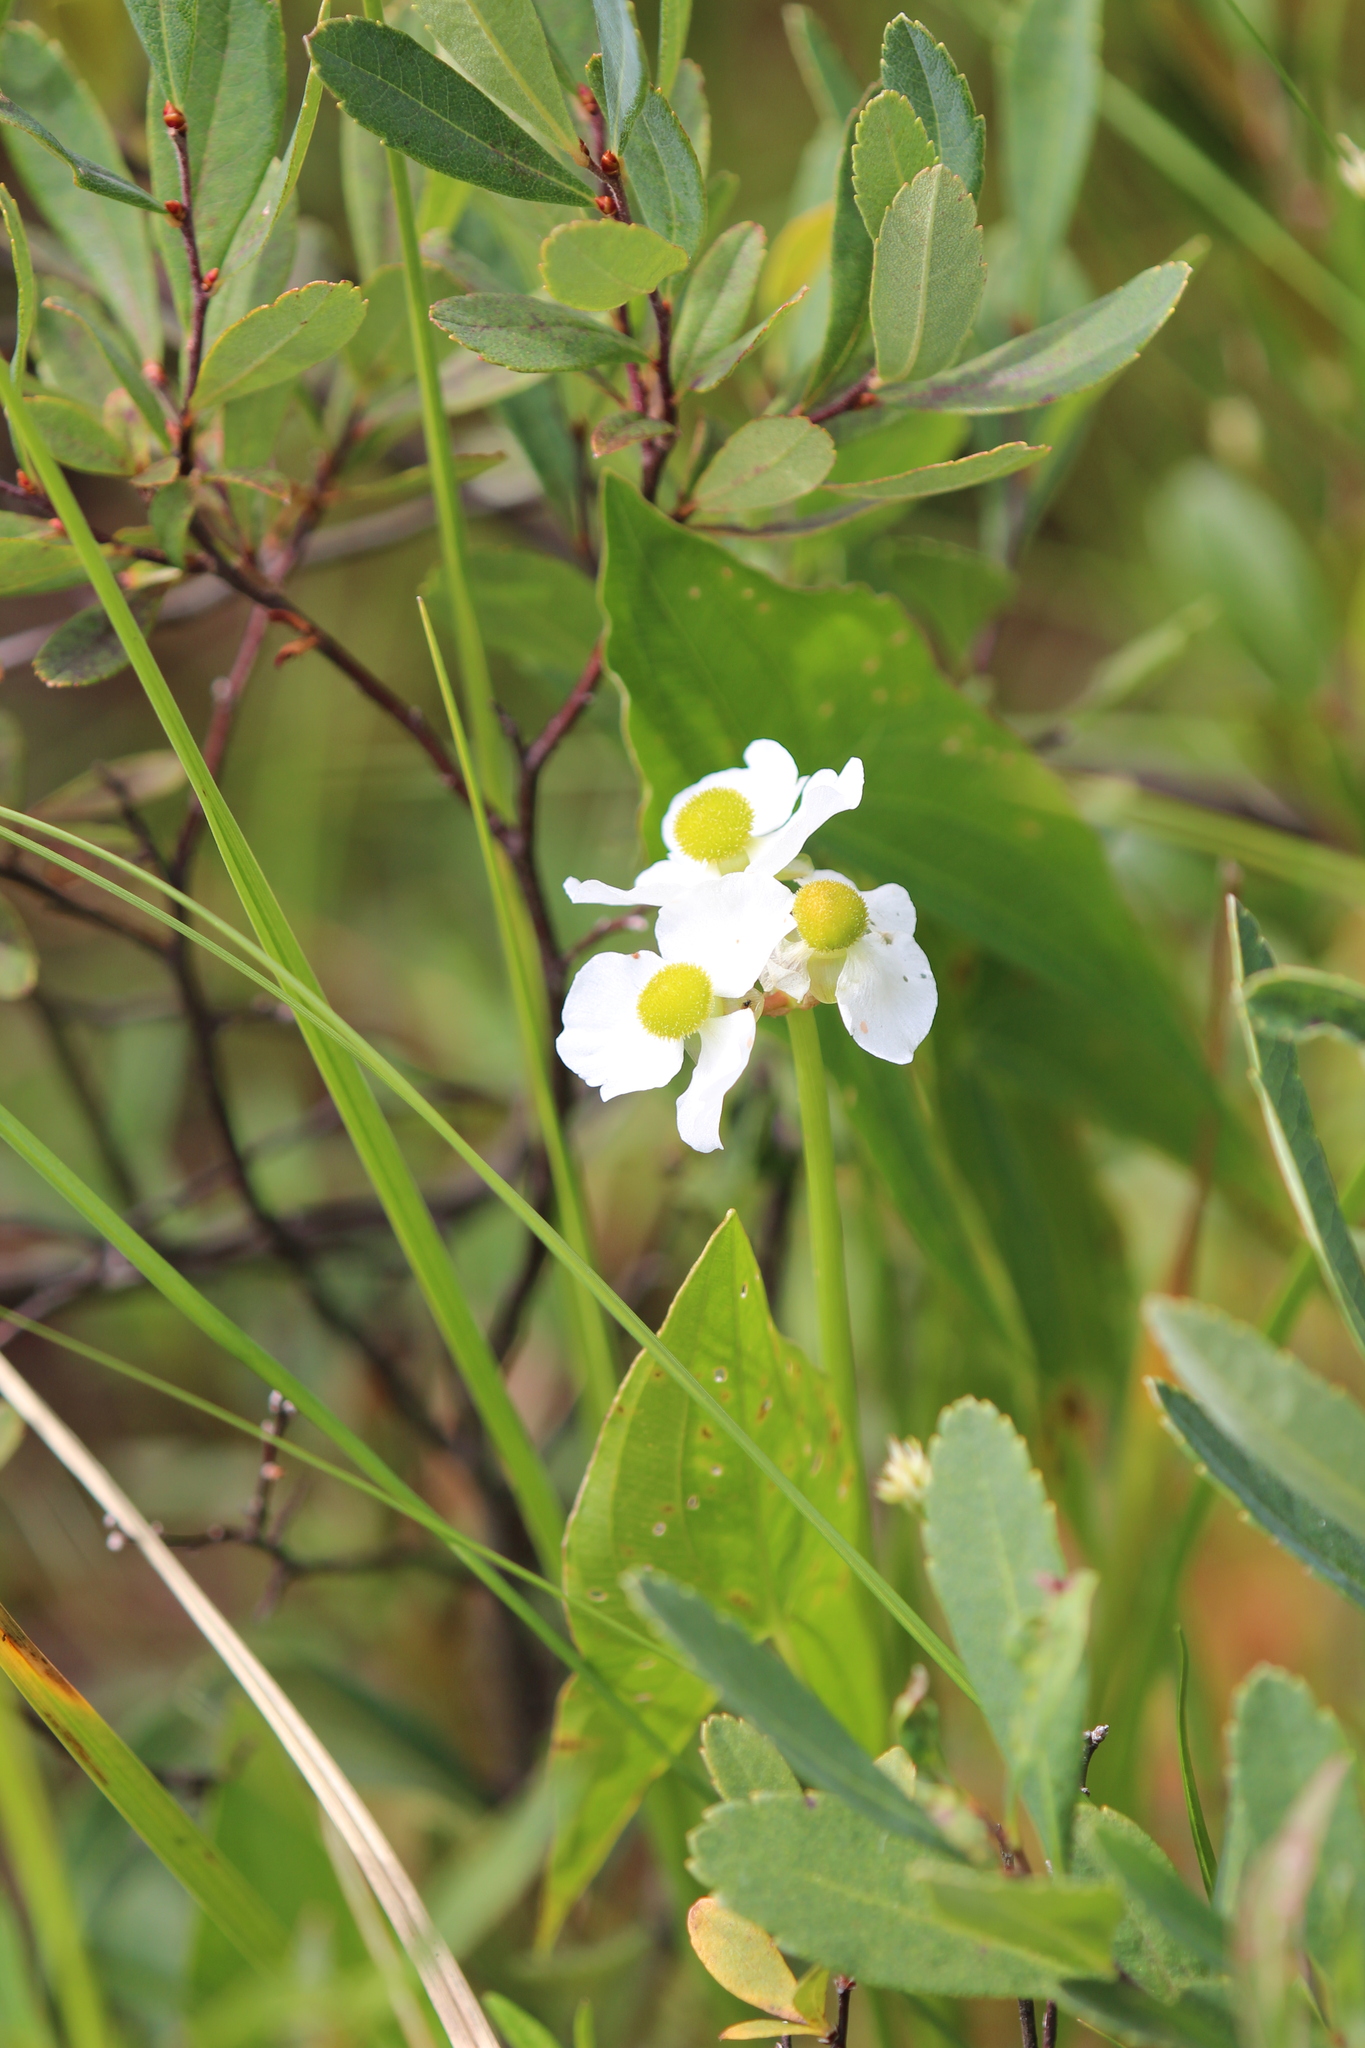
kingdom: Plantae
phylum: Tracheophyta
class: Liliopsida
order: Alismatales
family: Alismataceae
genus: Sagittaria
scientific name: Sagittaria latifolia
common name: Duck-potato
